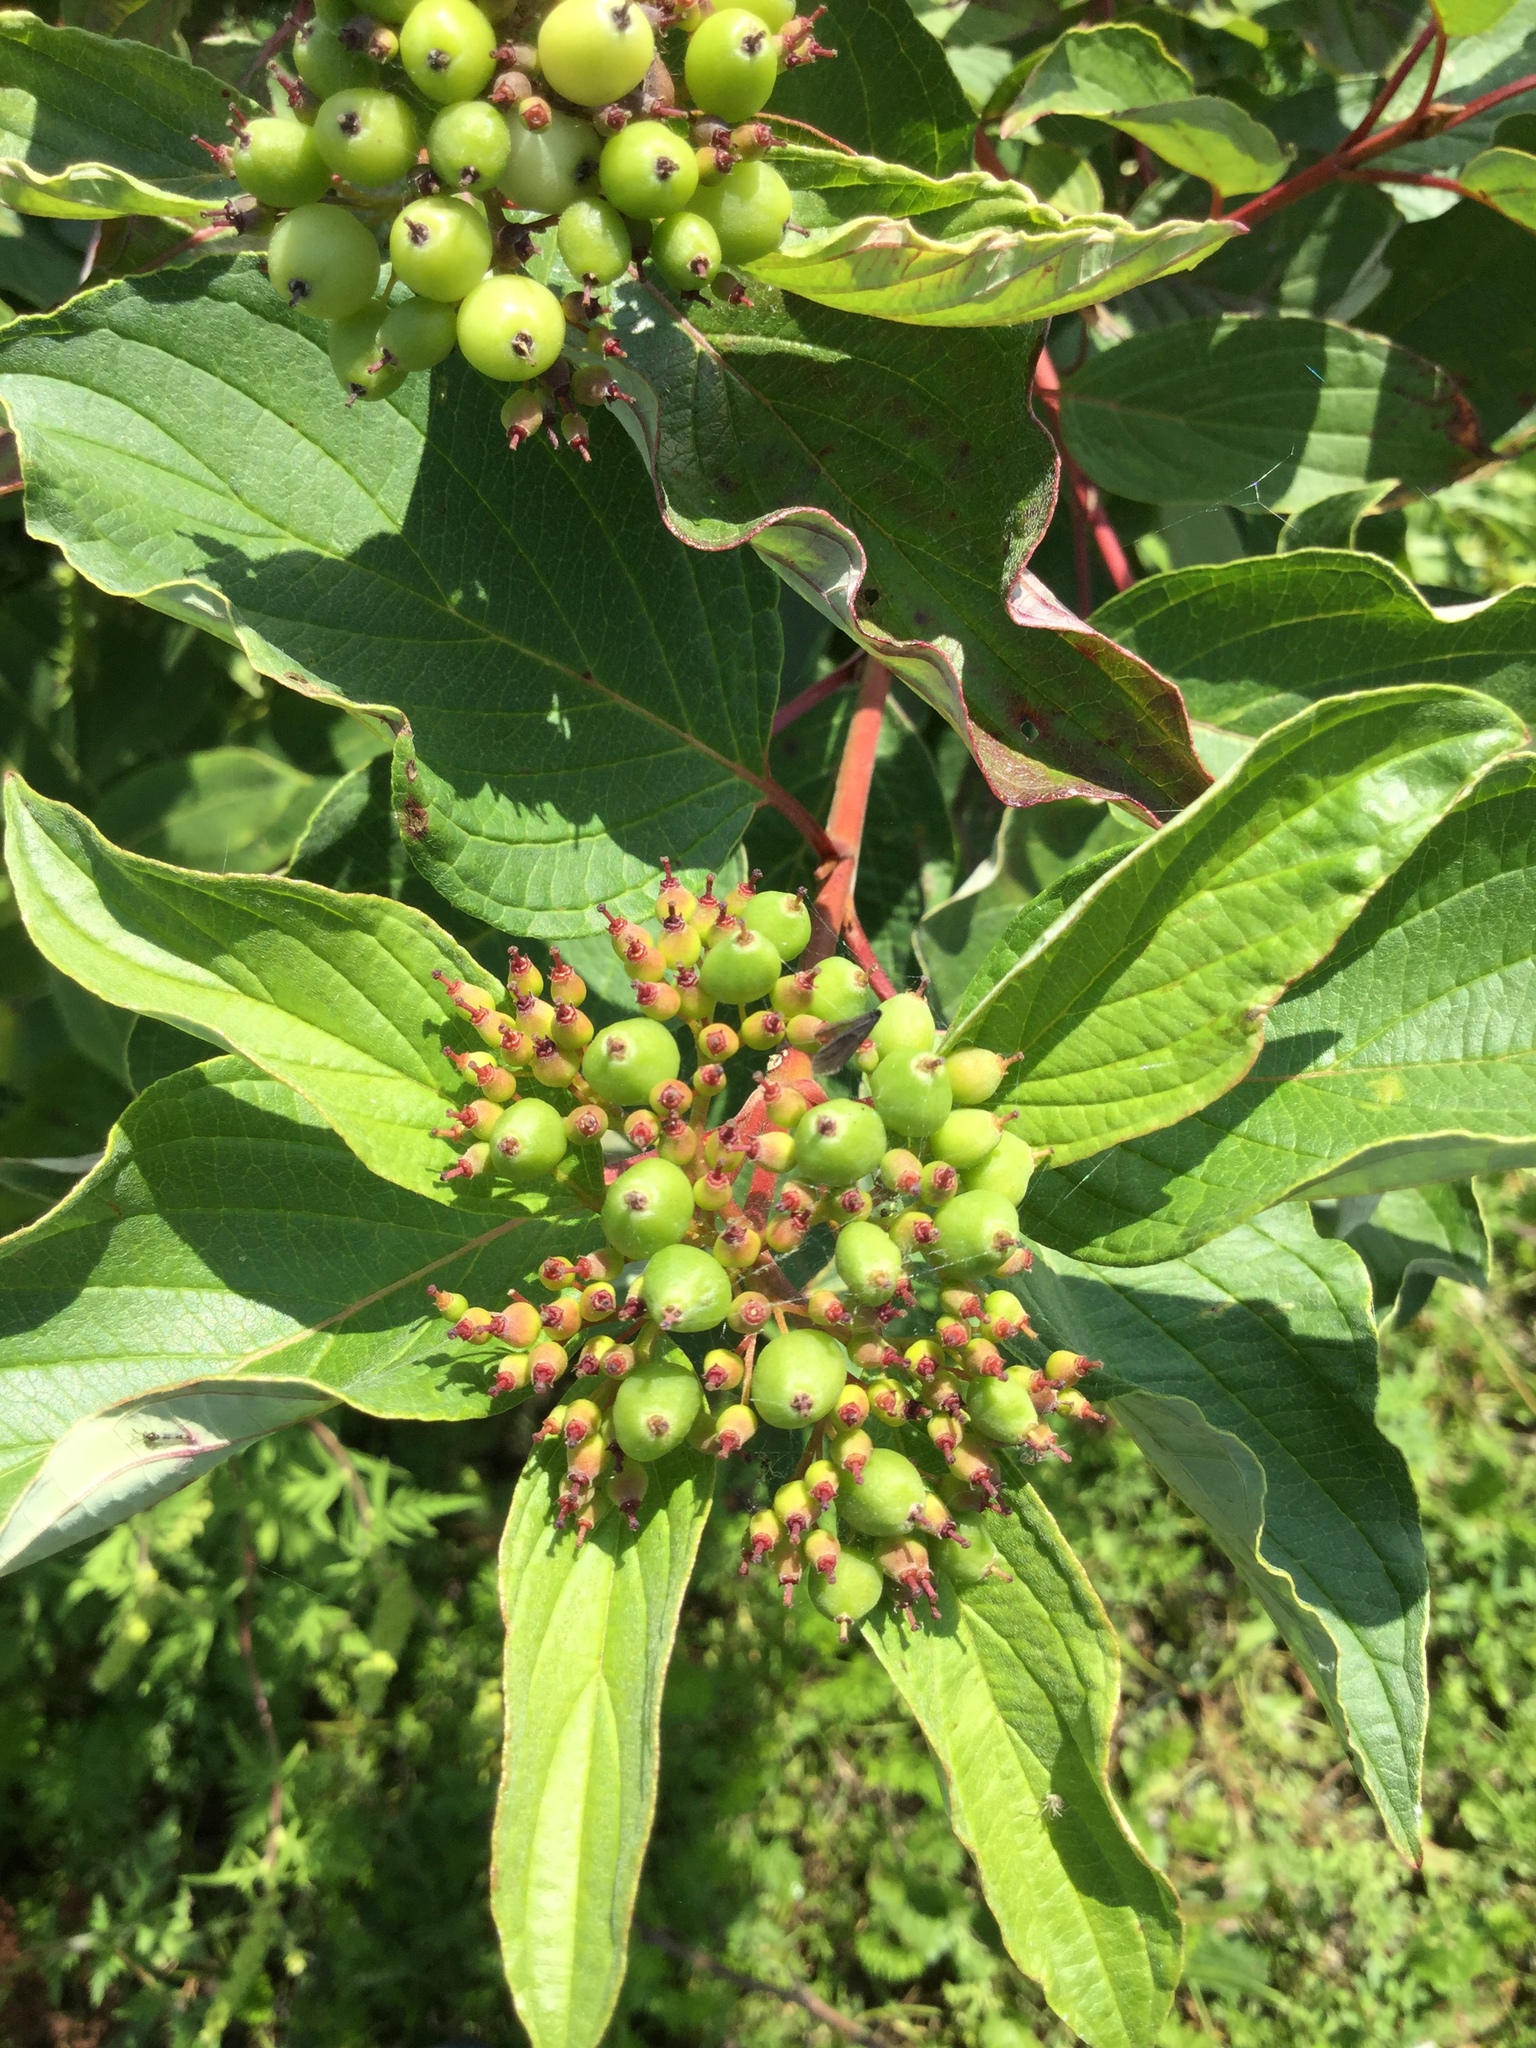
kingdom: Plantae
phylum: Tracheophyta
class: Magnoliopsida
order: Cornales
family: Cornaceae
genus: Cornus
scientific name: Cornus sericea
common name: Red-osier dogwood
